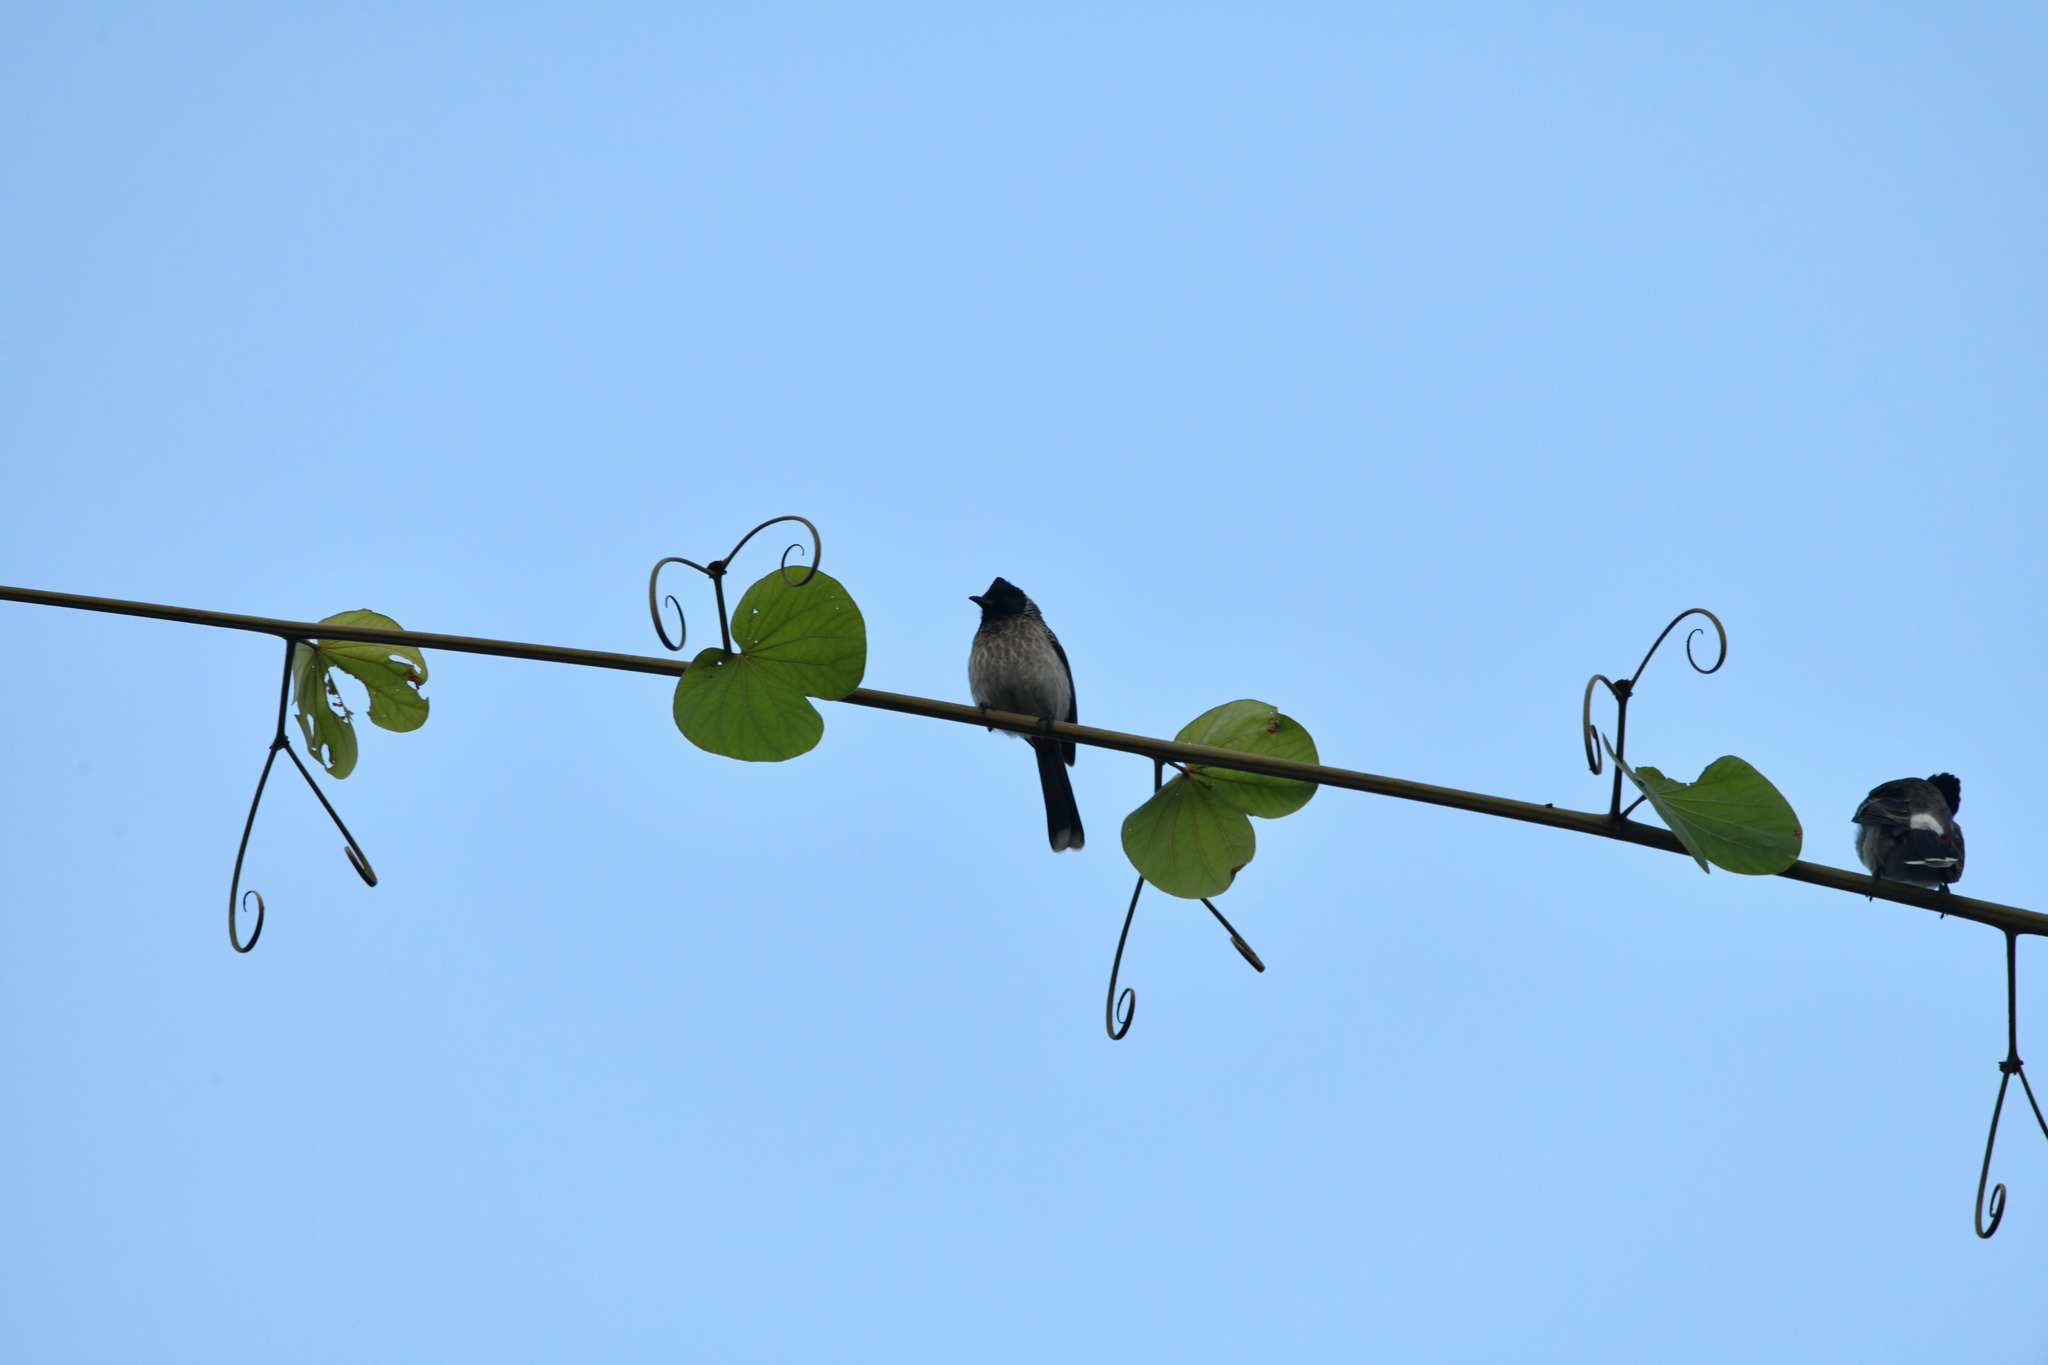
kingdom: Animalia
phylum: Chordata
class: Aves
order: Passeriformes
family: Pycnonotidae
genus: Pycnonotus
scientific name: Pycnonotus cafer
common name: Red-vented bulbul
